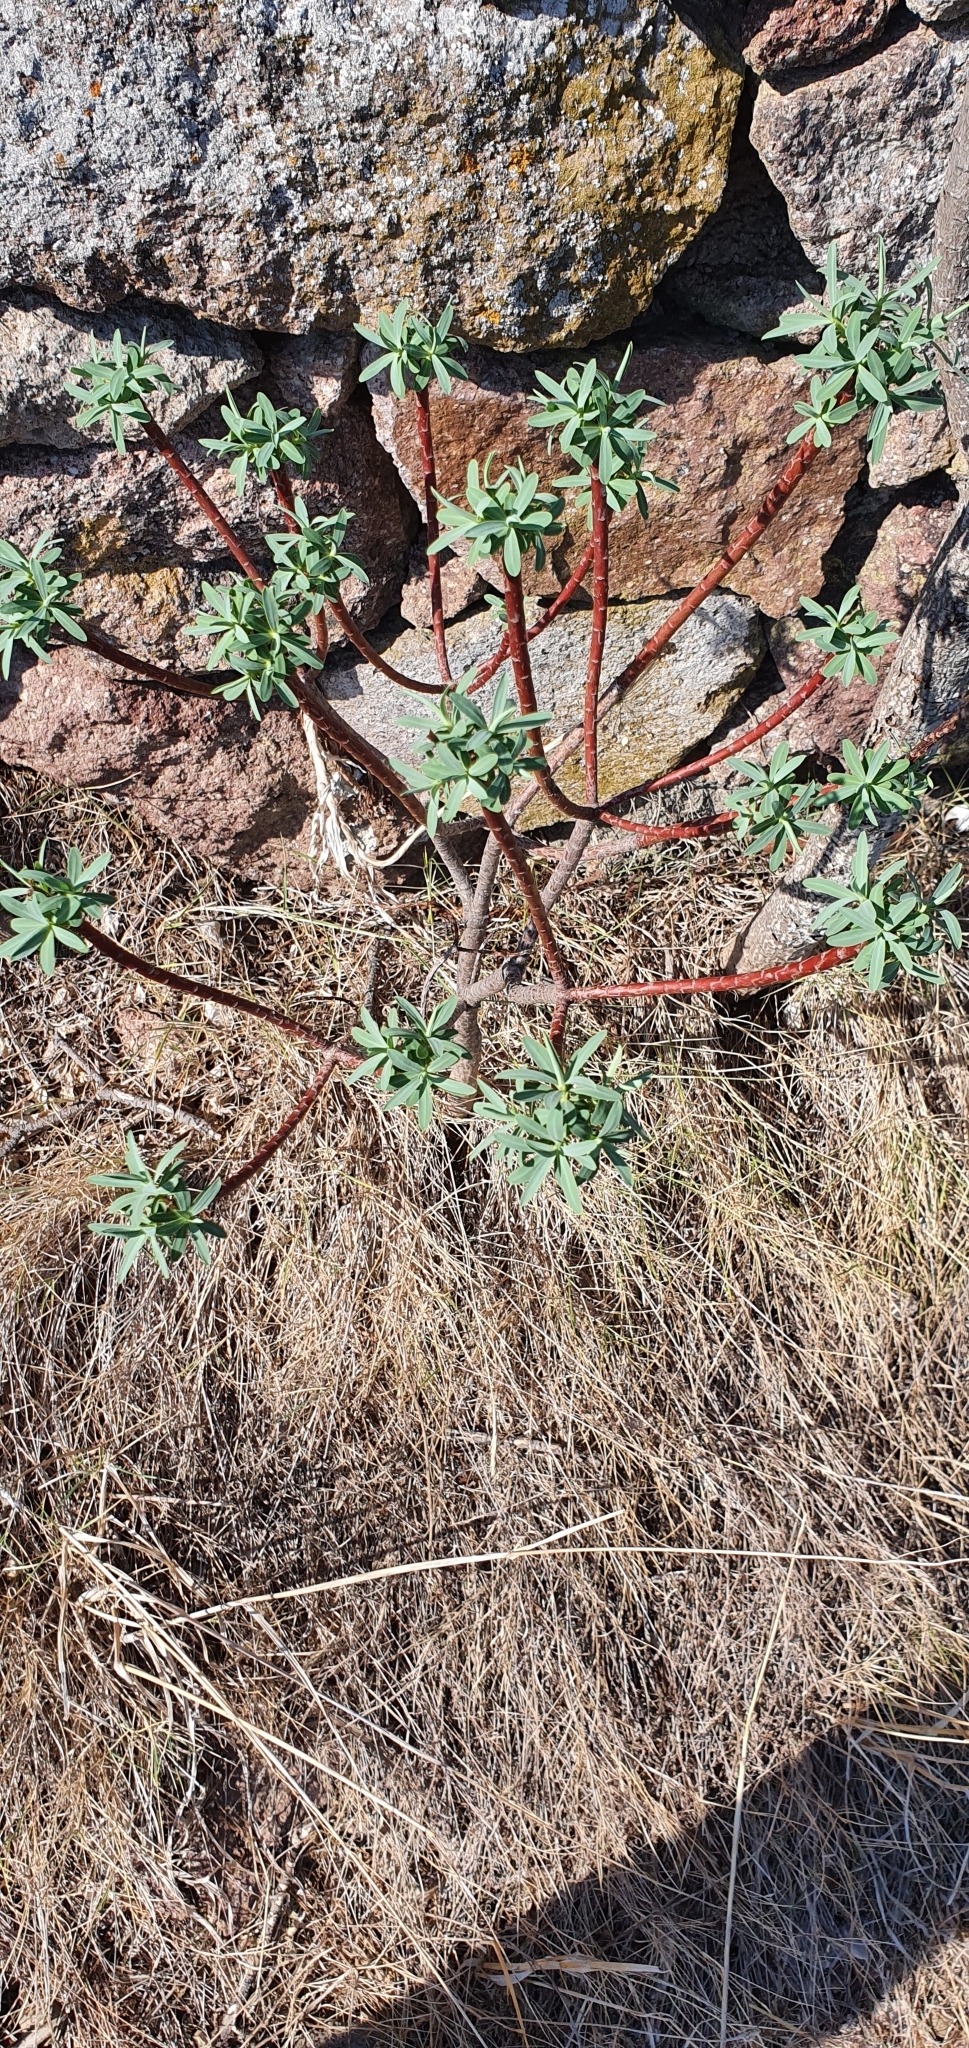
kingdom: Plantae
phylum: Tracheophyta
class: Magnoliopsida
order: Malpighiales
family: Euphorbiaceae
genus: Euphorbia
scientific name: Euphorbia dendroides
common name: Tree spurge
